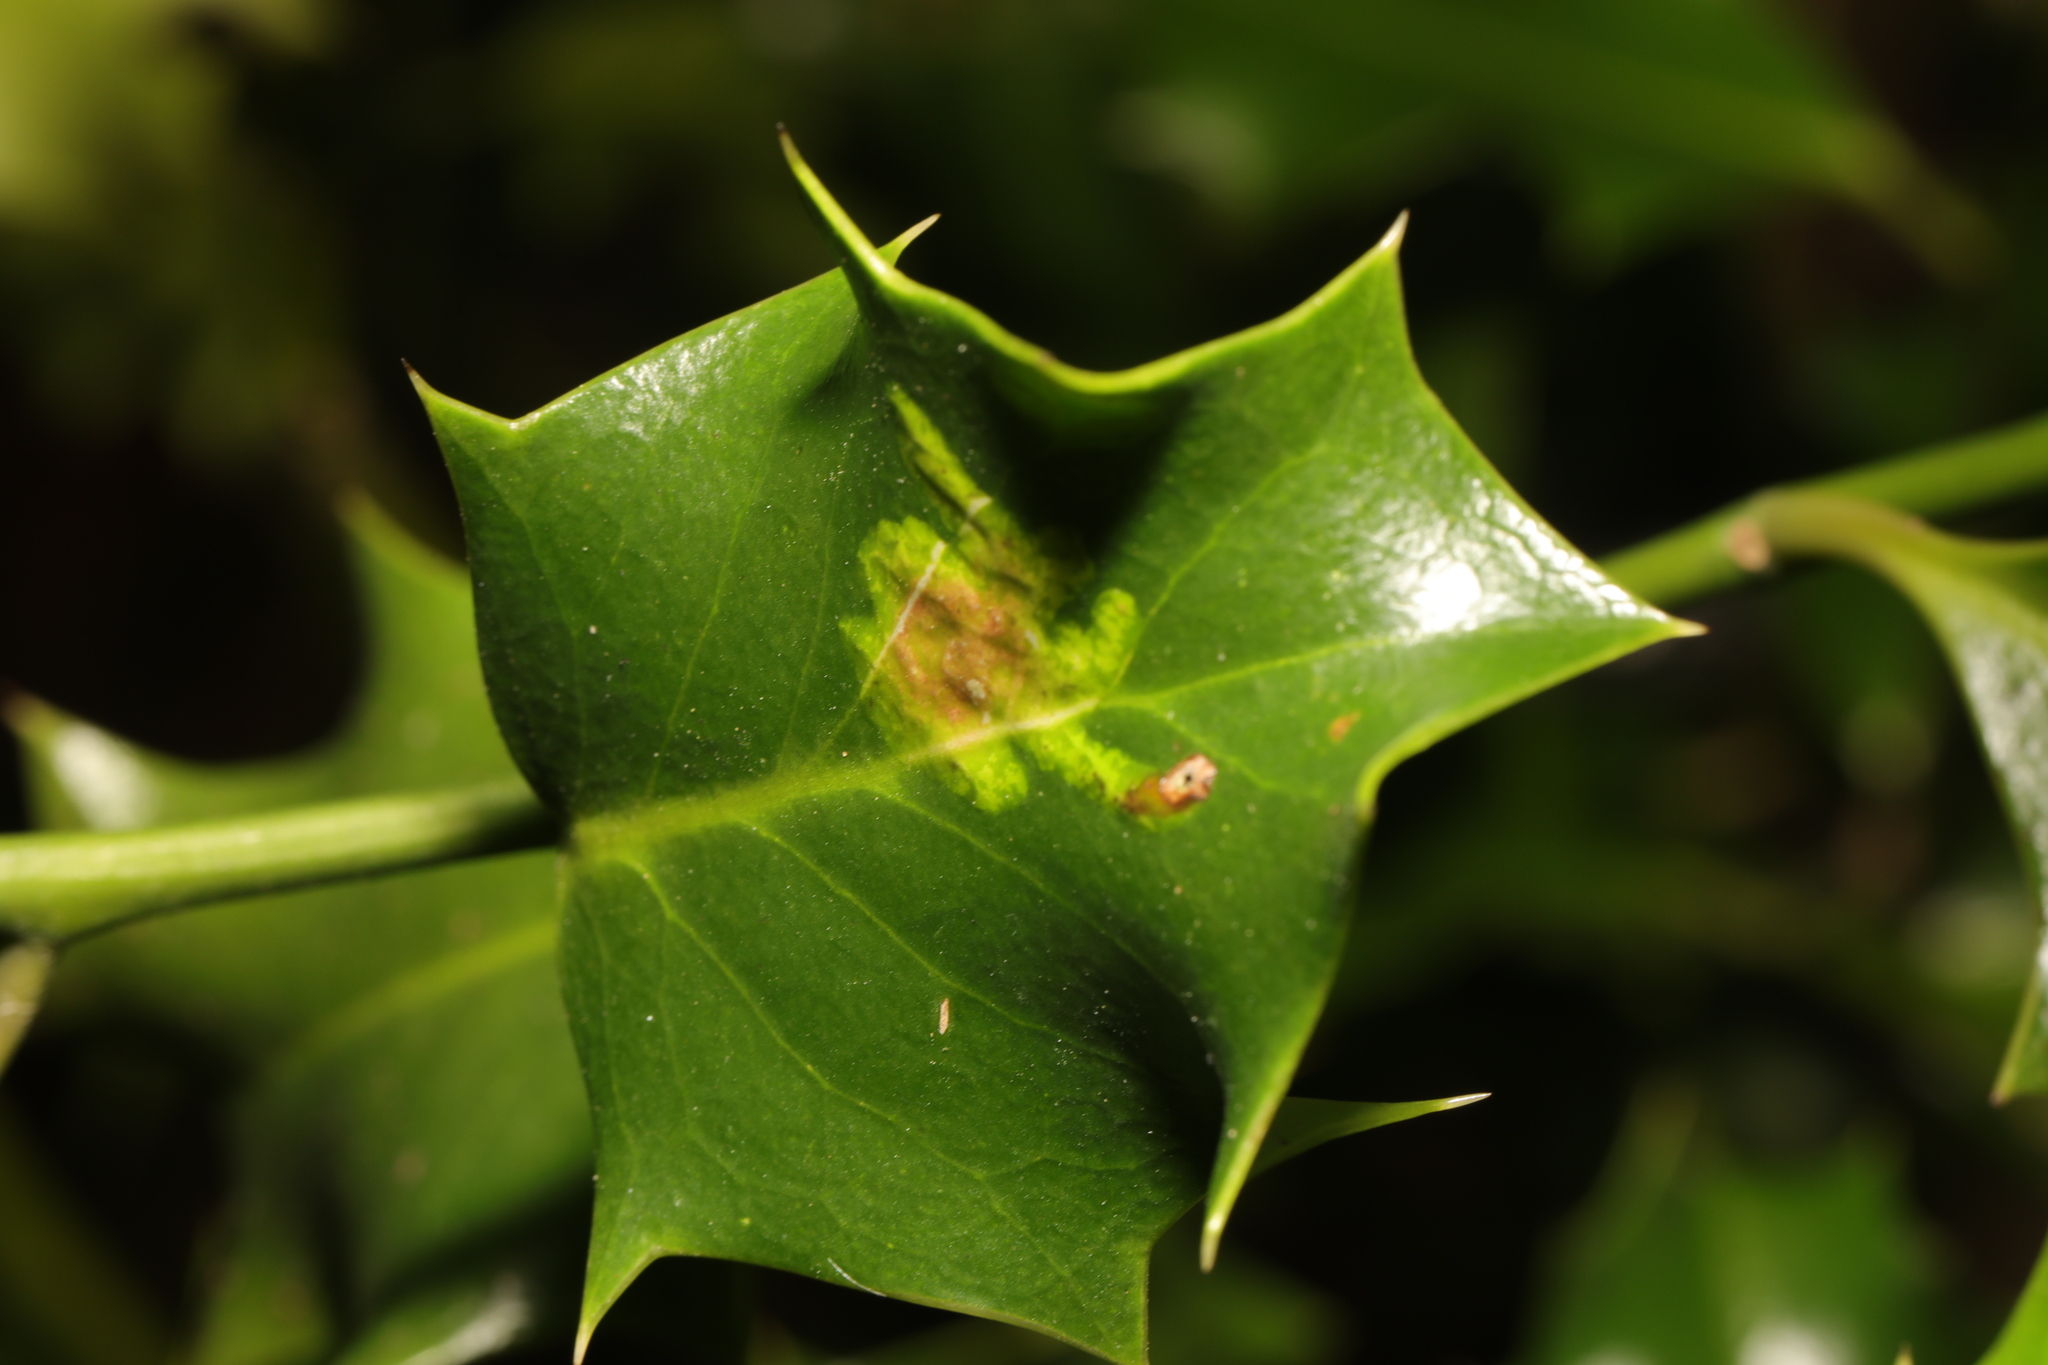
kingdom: Animalia
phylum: Arthropoda
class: Insecta
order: Diptera
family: Agromyzidae
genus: Phytomyza
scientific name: Phytomyza ilicis
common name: Holly leafminer
